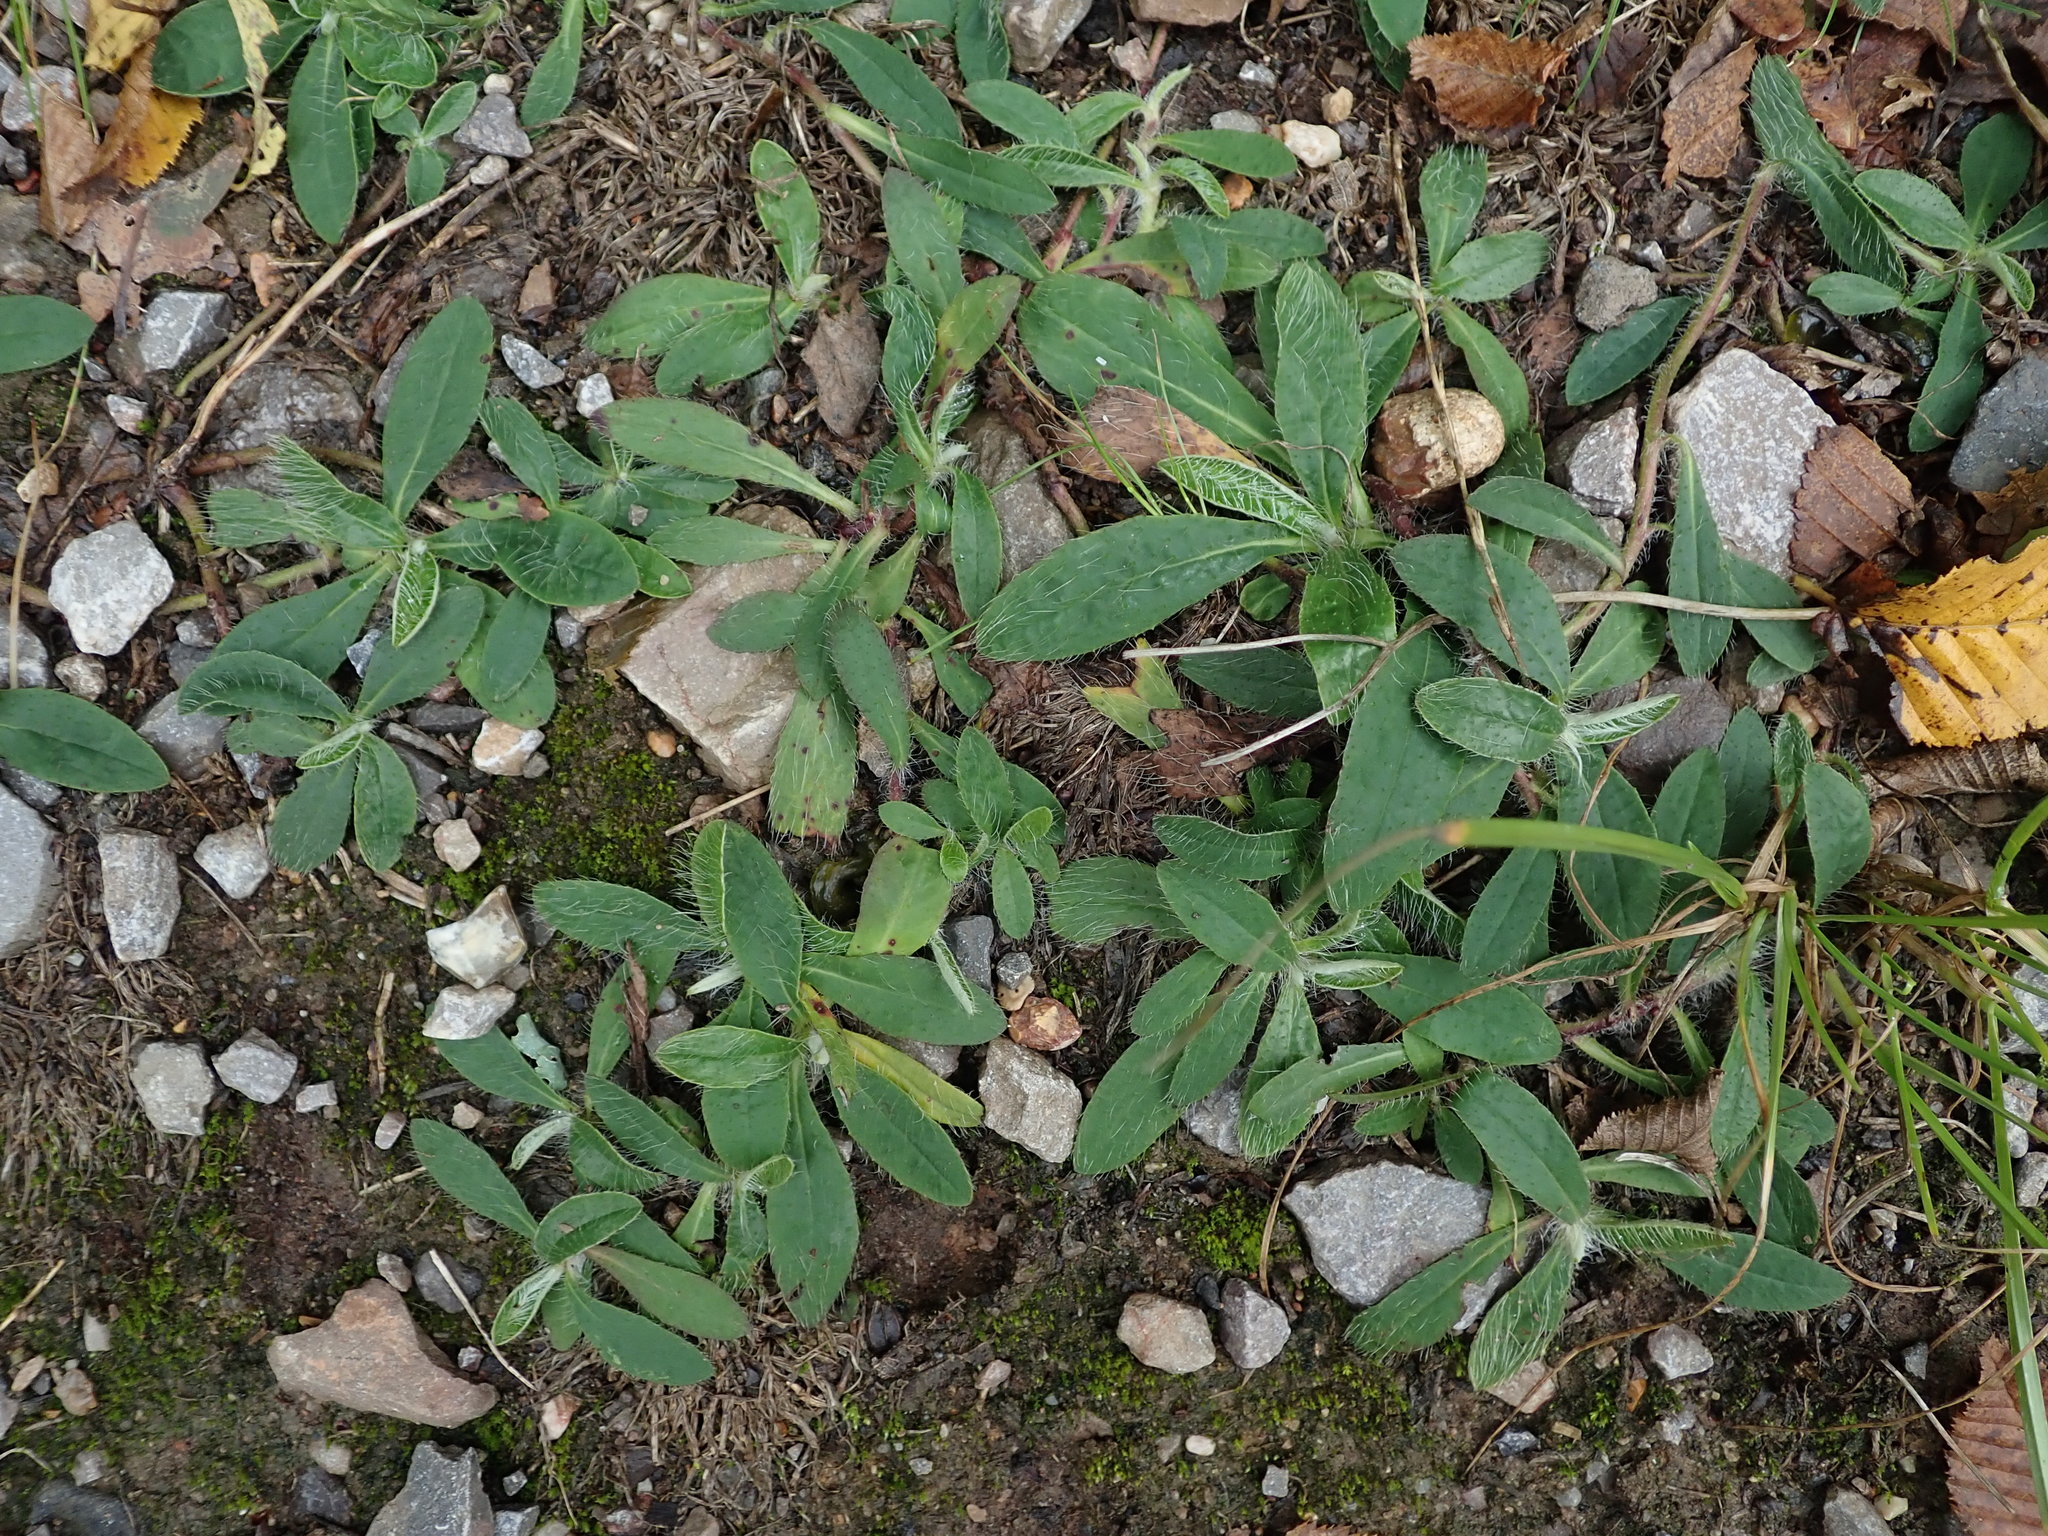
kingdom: Plantae
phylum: Tracheophyta
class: Magnoliopsida
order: Asterales
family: Asteraceae
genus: Pilosella
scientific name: Pilosella officinarum
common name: Mouse-ear hawkweed
